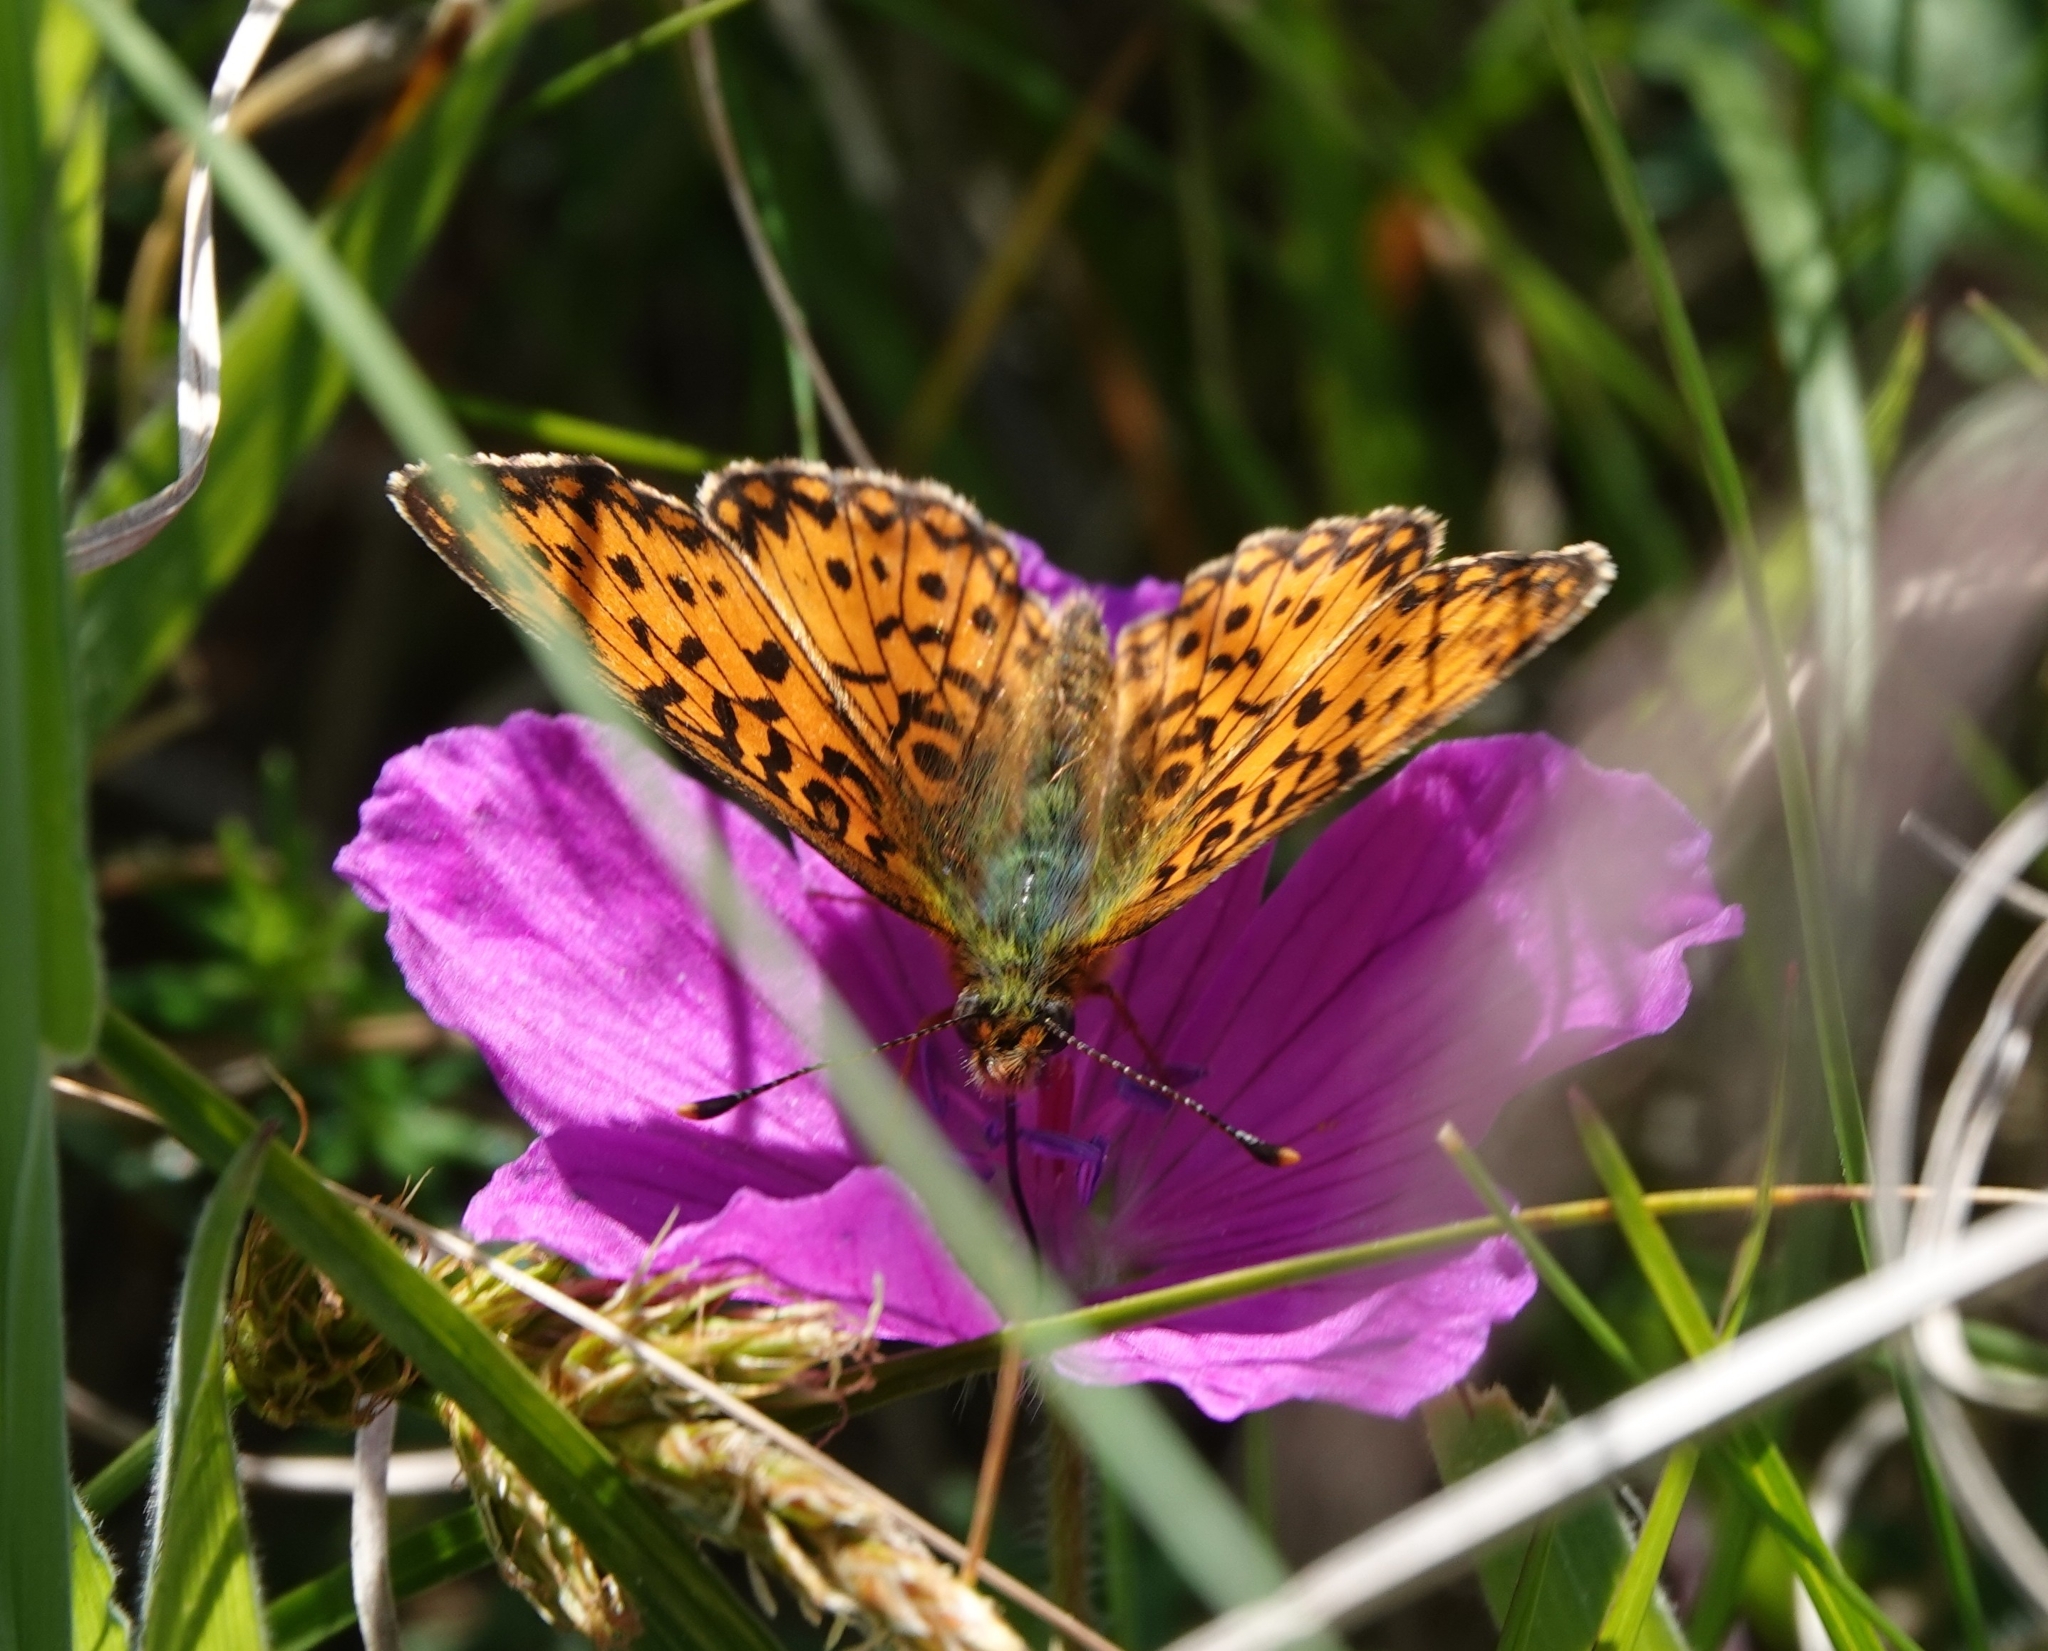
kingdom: Animalia
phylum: Arthropoda
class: Insecta
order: Lepidoptera
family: Nymphalidae
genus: Boloria
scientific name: Boloria selene
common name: Small pearl-bordered fritillary
